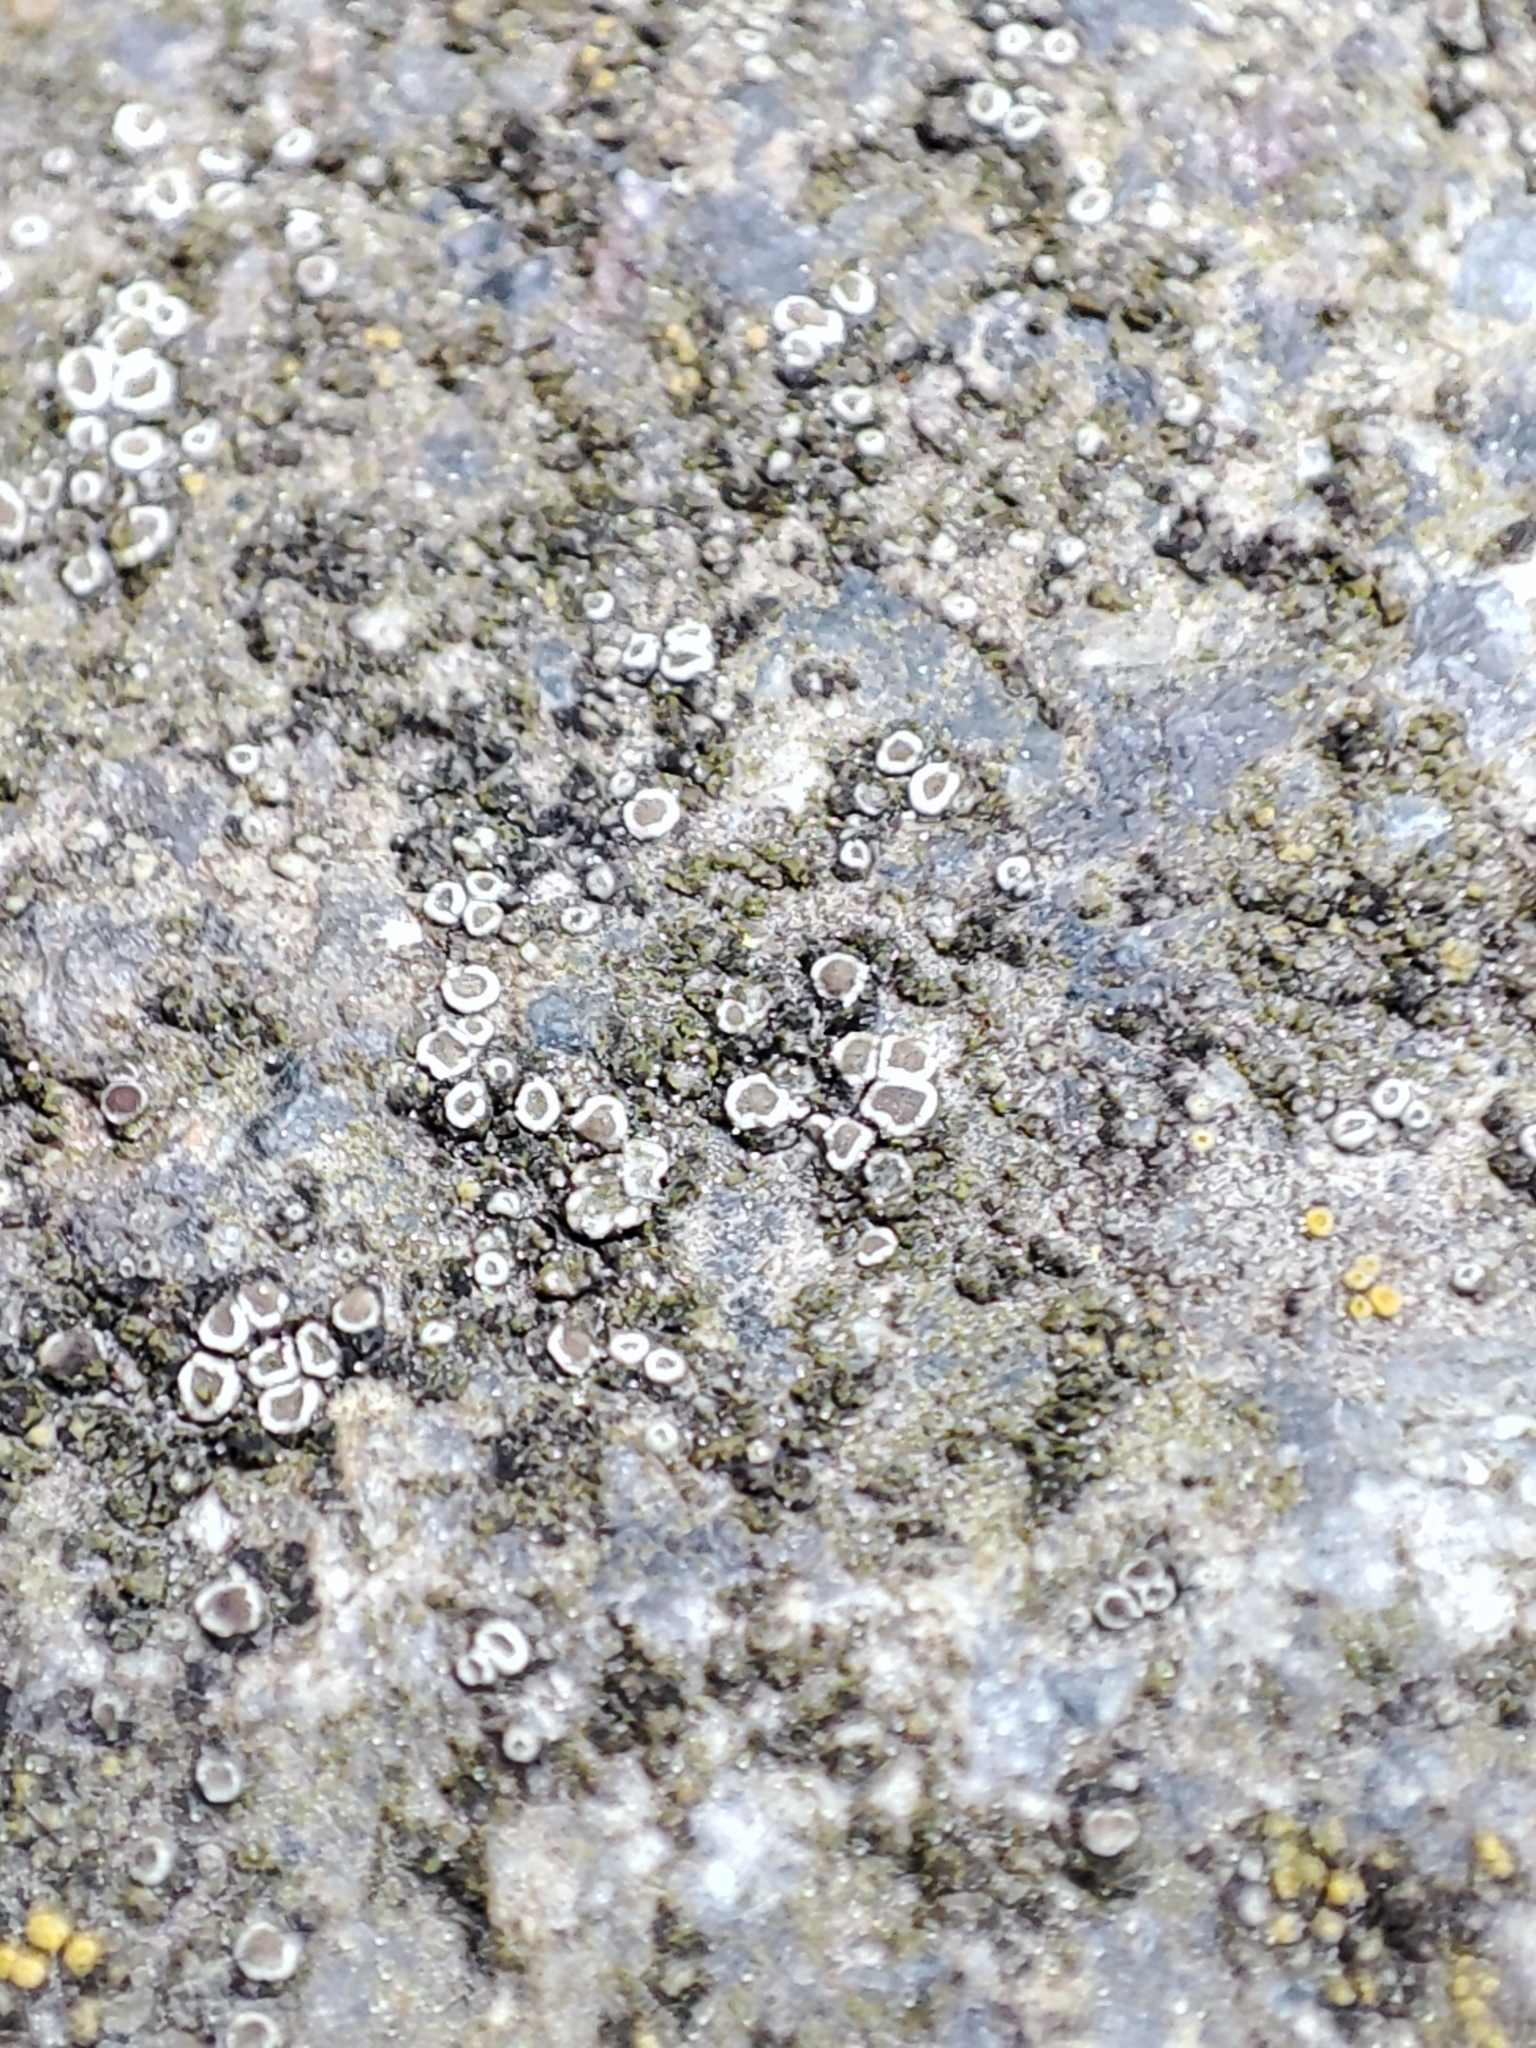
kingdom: Fungi
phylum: Ascomycota
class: Lecanoromycetes
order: Lecanorales
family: Lecanoraceae
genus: Polyozosia
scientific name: Polyozosia dispersa
